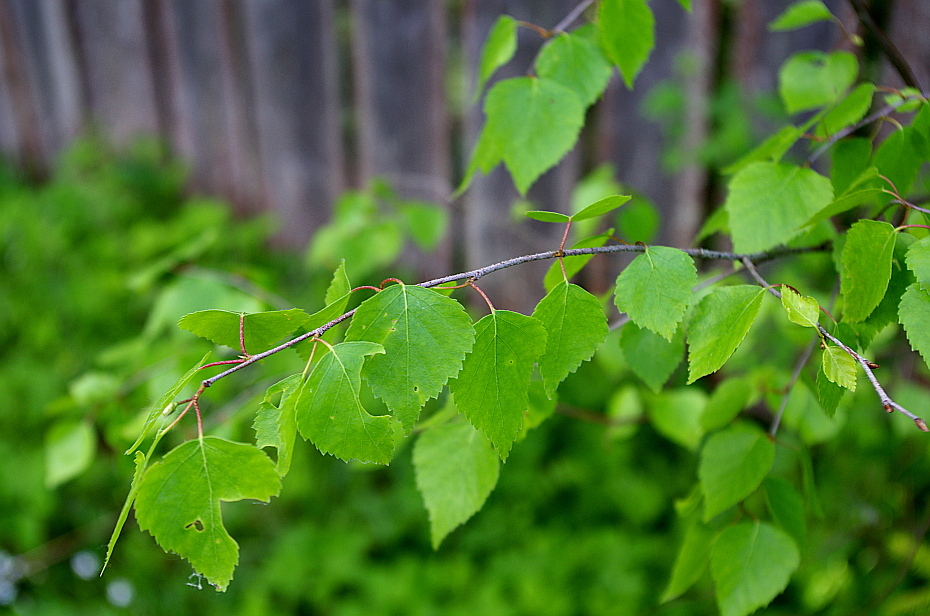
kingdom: Plantae
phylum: Tracheophyta
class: Magnoliopsida
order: Fagales
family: Betulaceae
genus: Betula
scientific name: Betula pendula
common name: Silver birch
